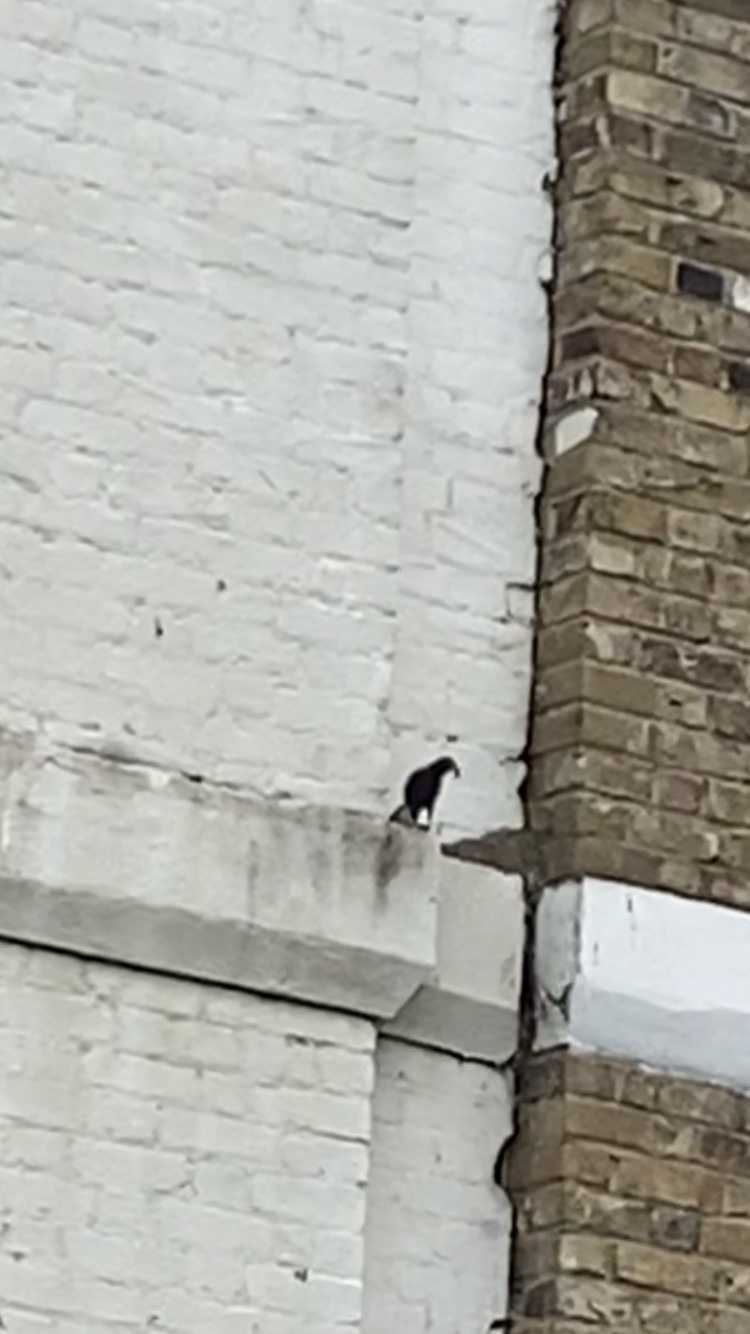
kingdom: Animalia
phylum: Chordata
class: Aves
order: Passeriformes
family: Sturnidae
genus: Sturnus
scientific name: Sturnus vulgaris
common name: Common starling
